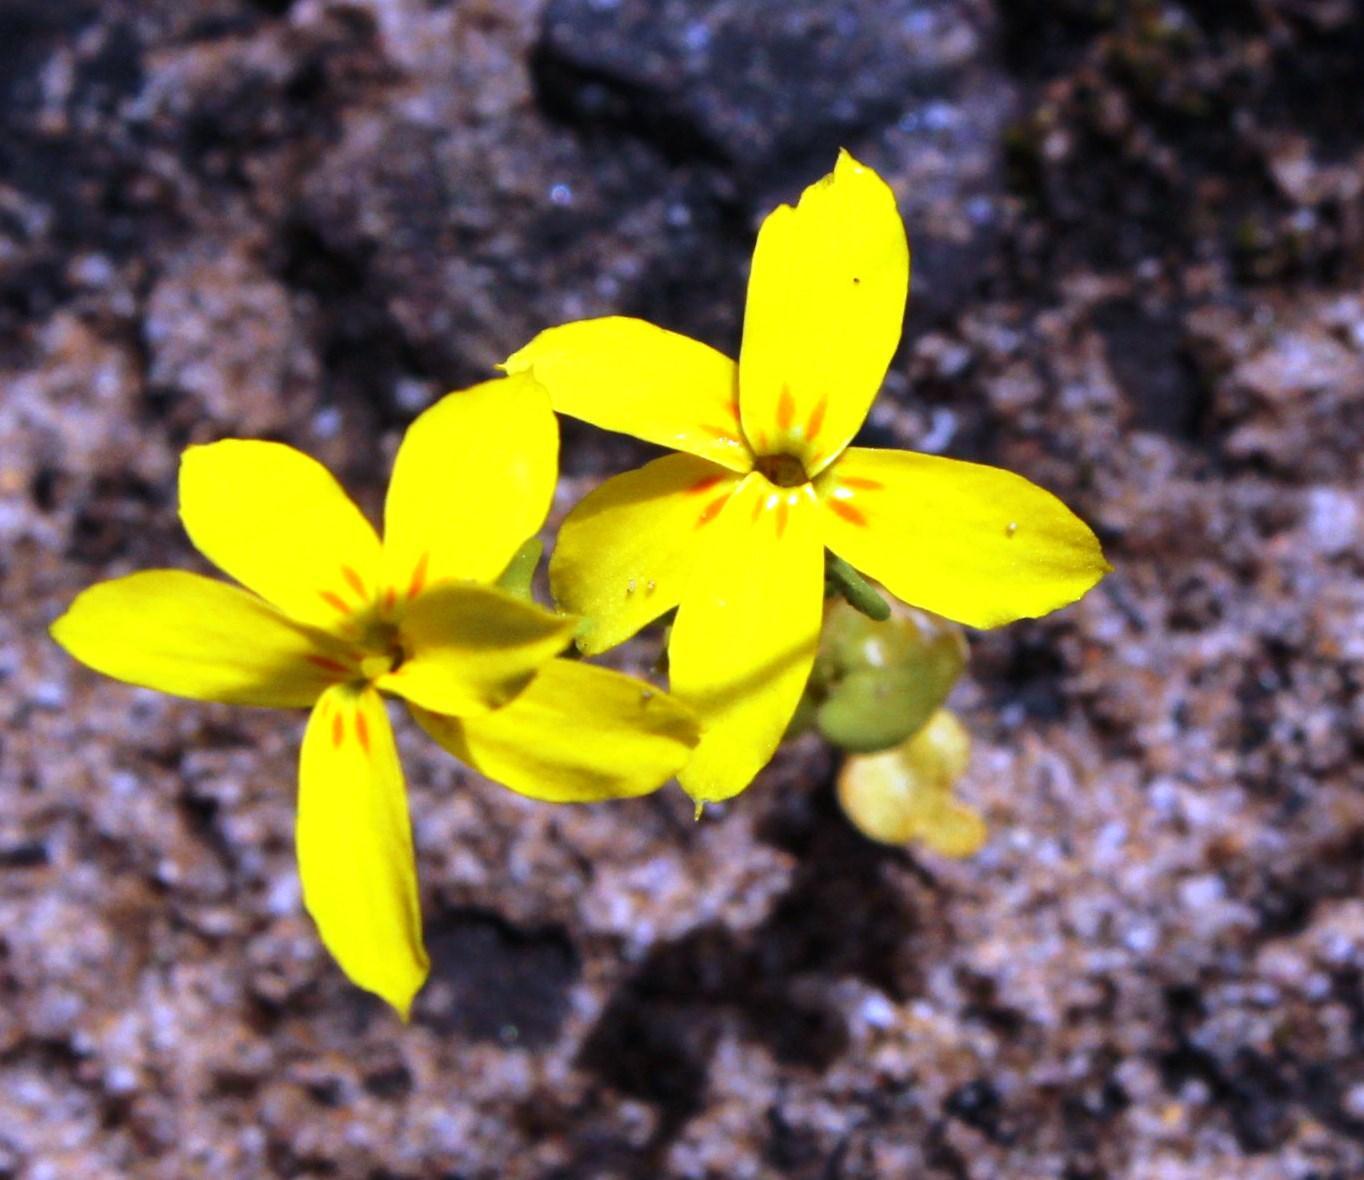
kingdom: Plantae
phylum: Tracheophyta
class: Magnoliopsida
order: Gentianales
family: Gentianaceae
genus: Sebaea
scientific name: Sebaea exacoides
